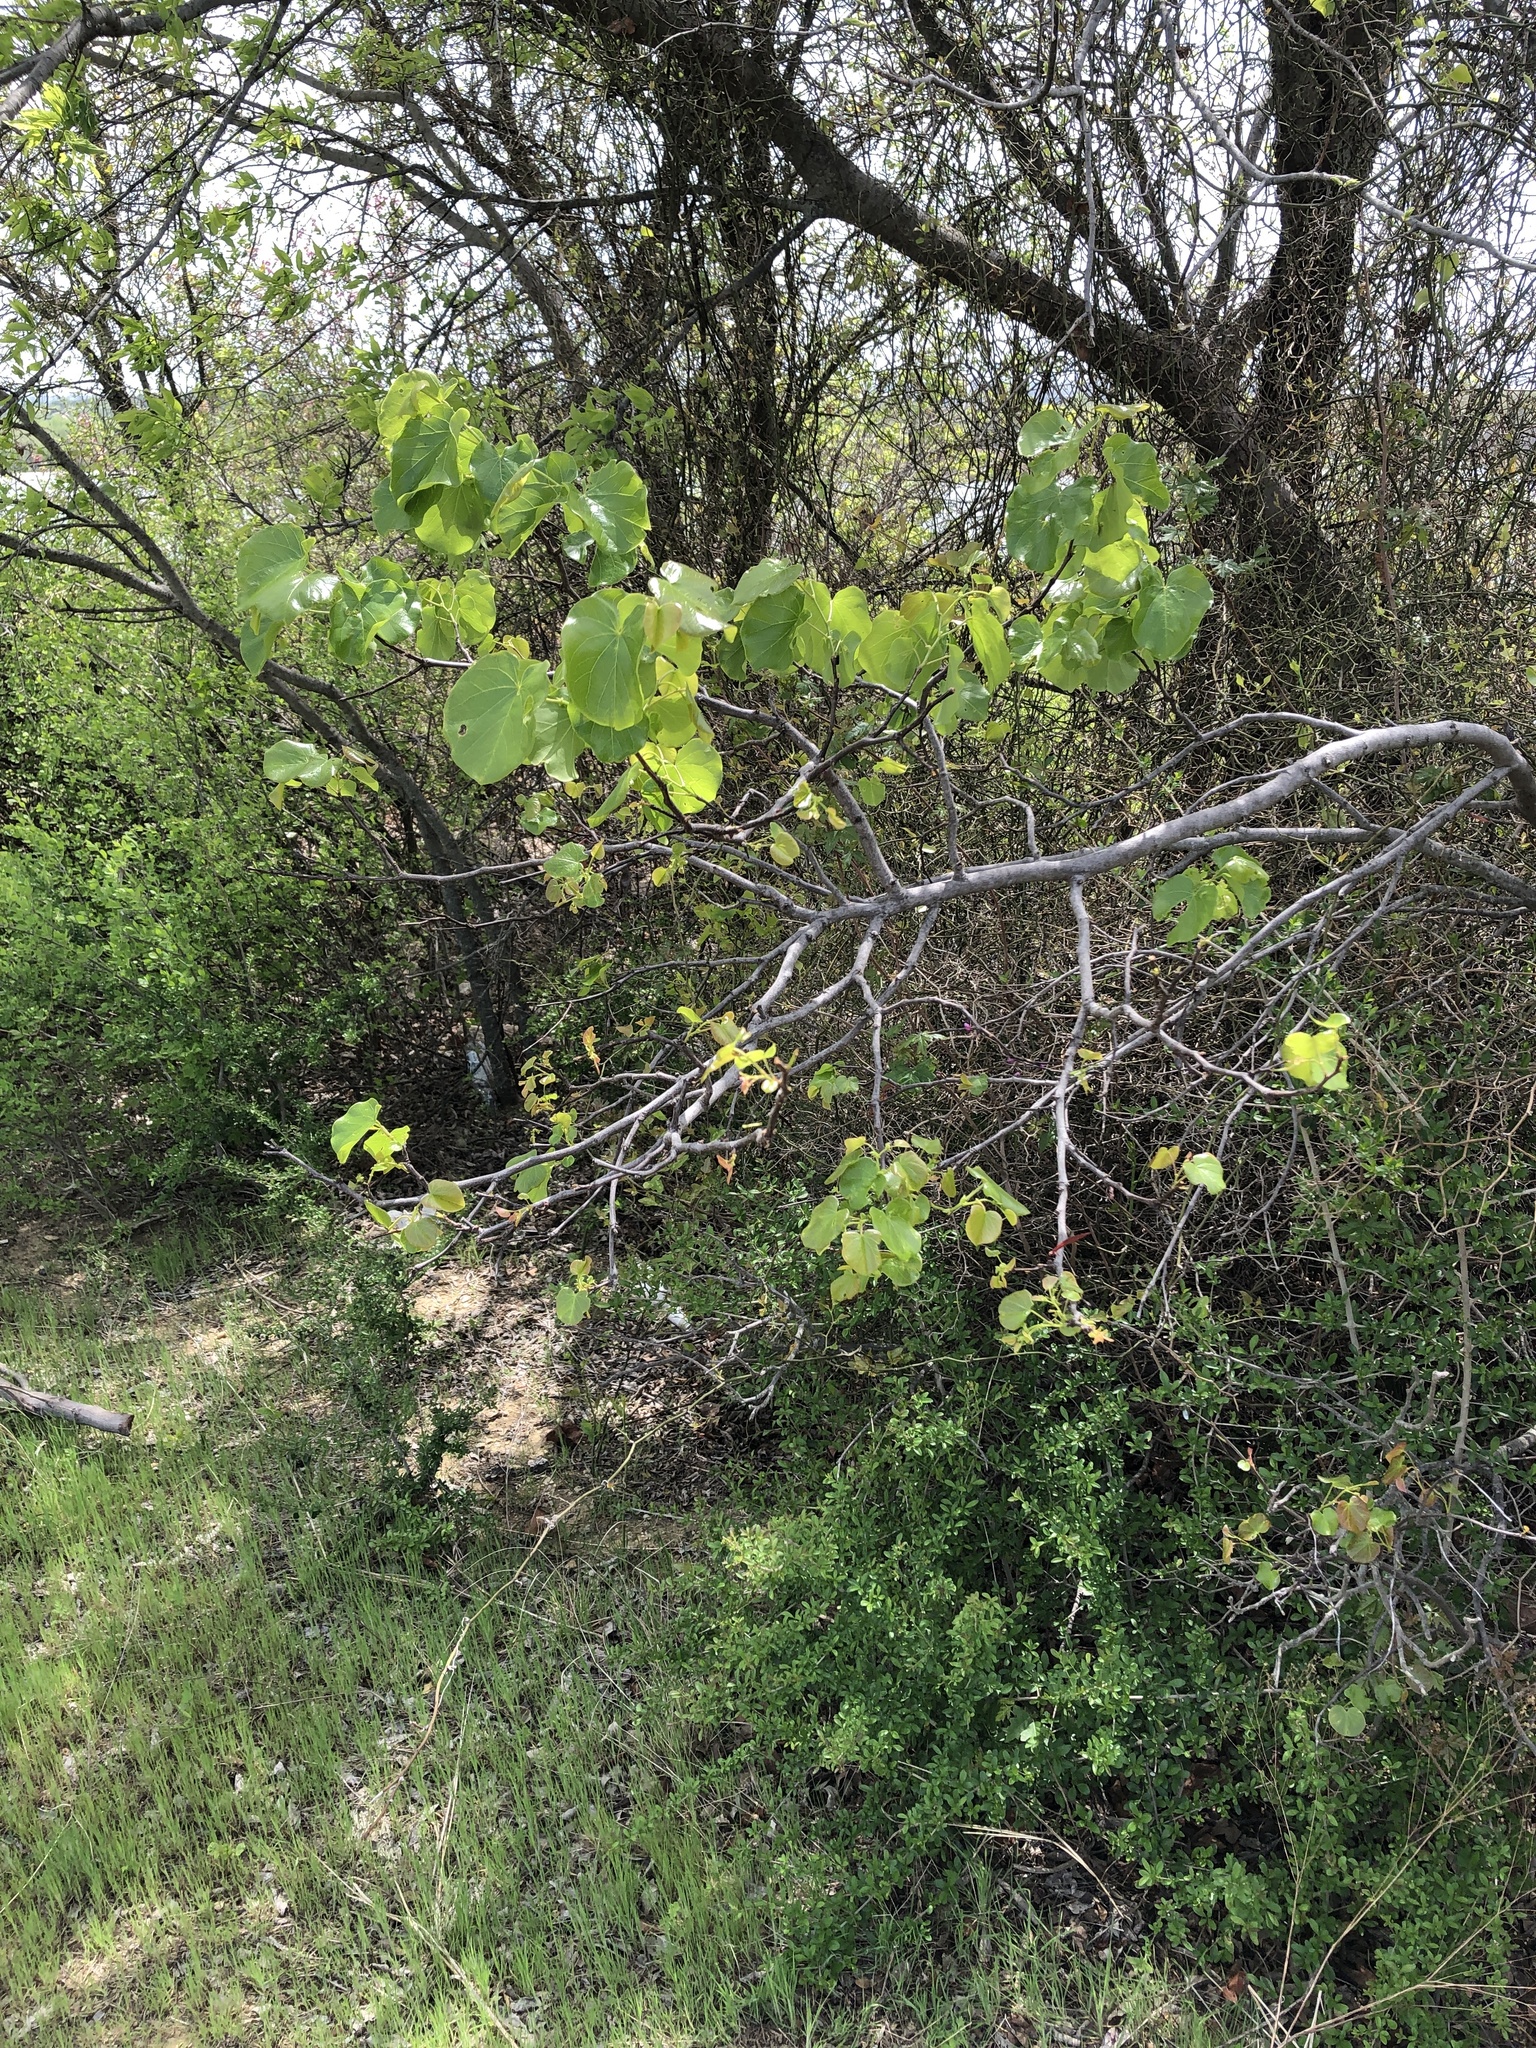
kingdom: Plantae
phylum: Tracheophyta
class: Magnoliopsida
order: Fabales
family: Fabaceae
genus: Cercis
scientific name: Cercis canadensis
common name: Eastern redbud
